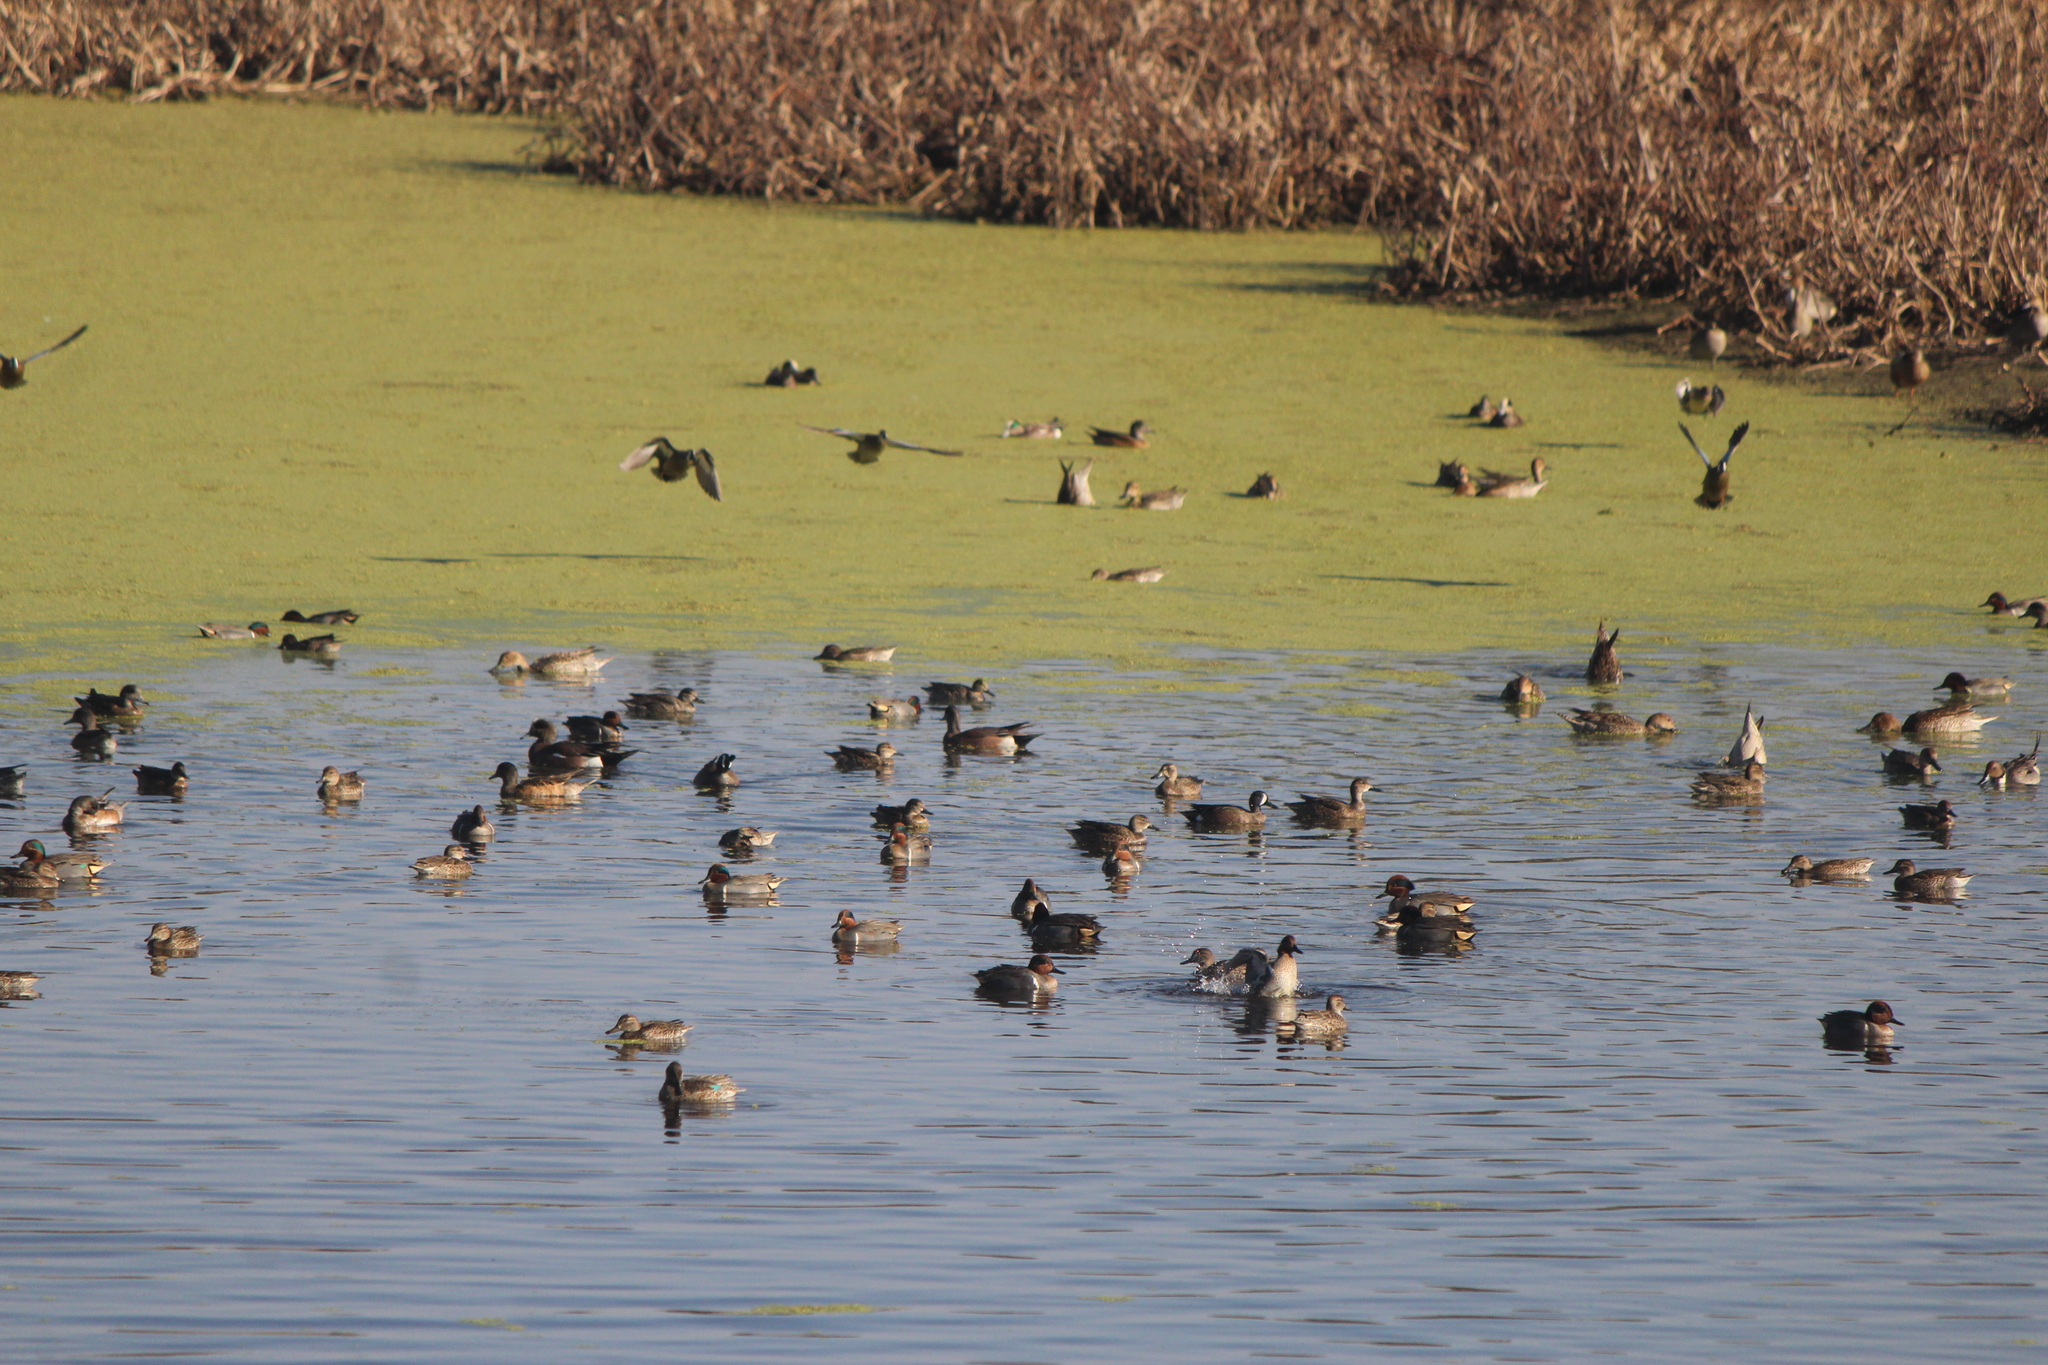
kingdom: Animalia
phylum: Chordata
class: Aves
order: Anseriformes
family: Anatidae
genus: Anas
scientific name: Anas crecca
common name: Eurasian teal
